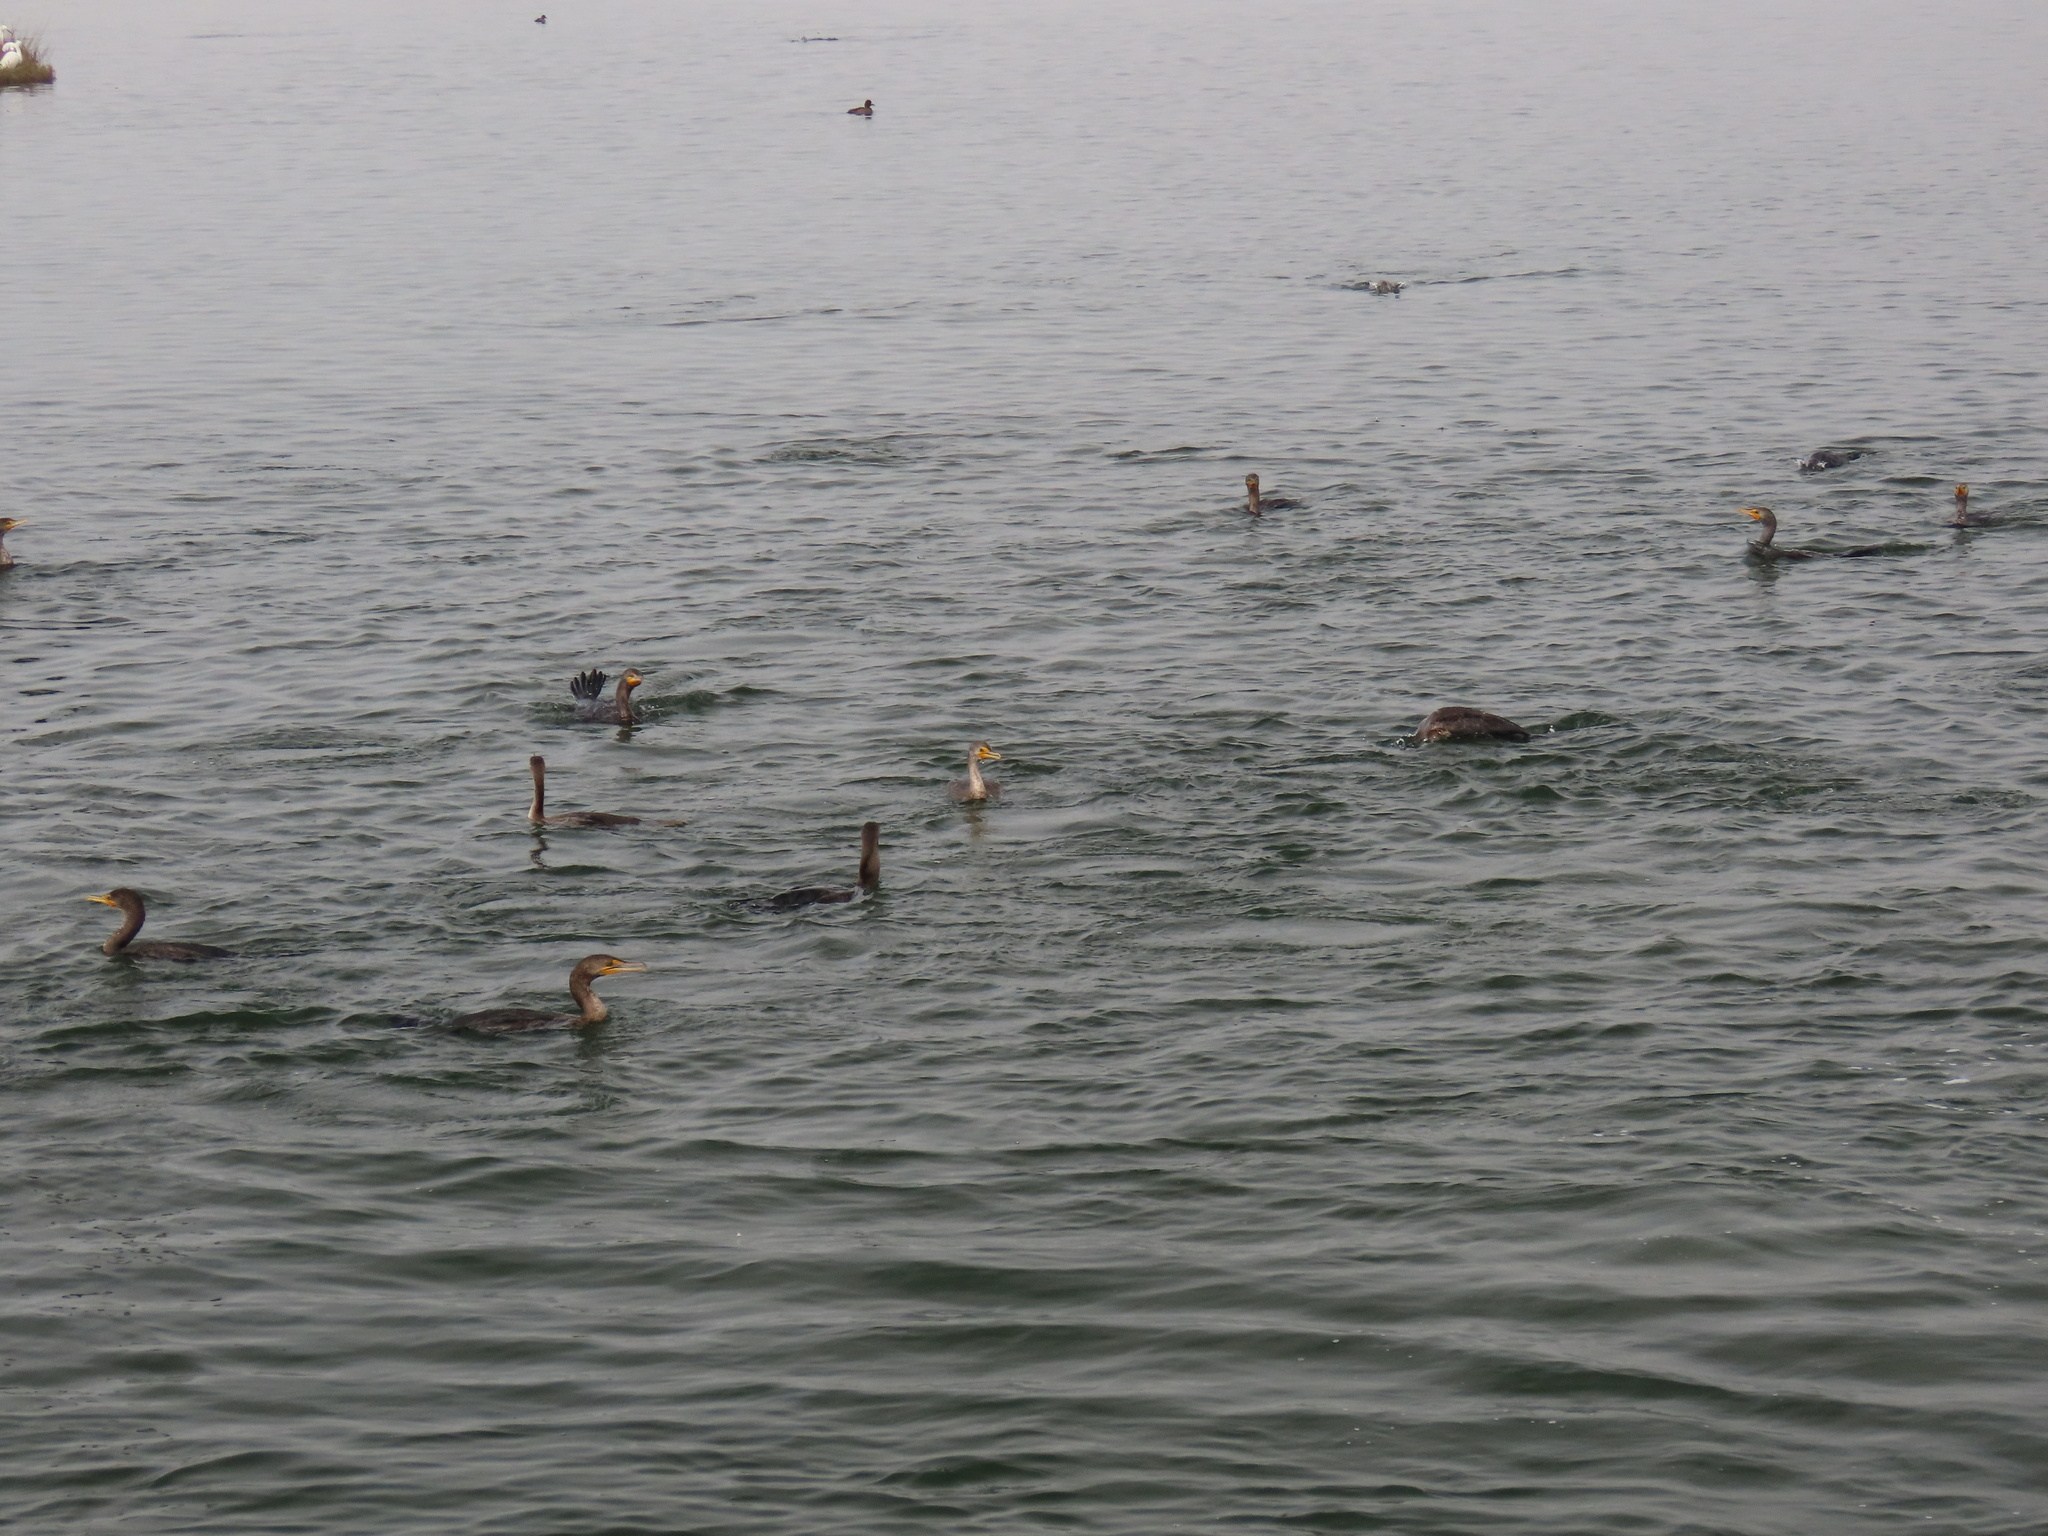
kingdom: Animalia
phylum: Chordata
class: Aves
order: Suliformes
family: Phalacrocoracidae
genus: Phalacrocorax
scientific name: Phalacrocorax auritus
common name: Double-crested cormorant
